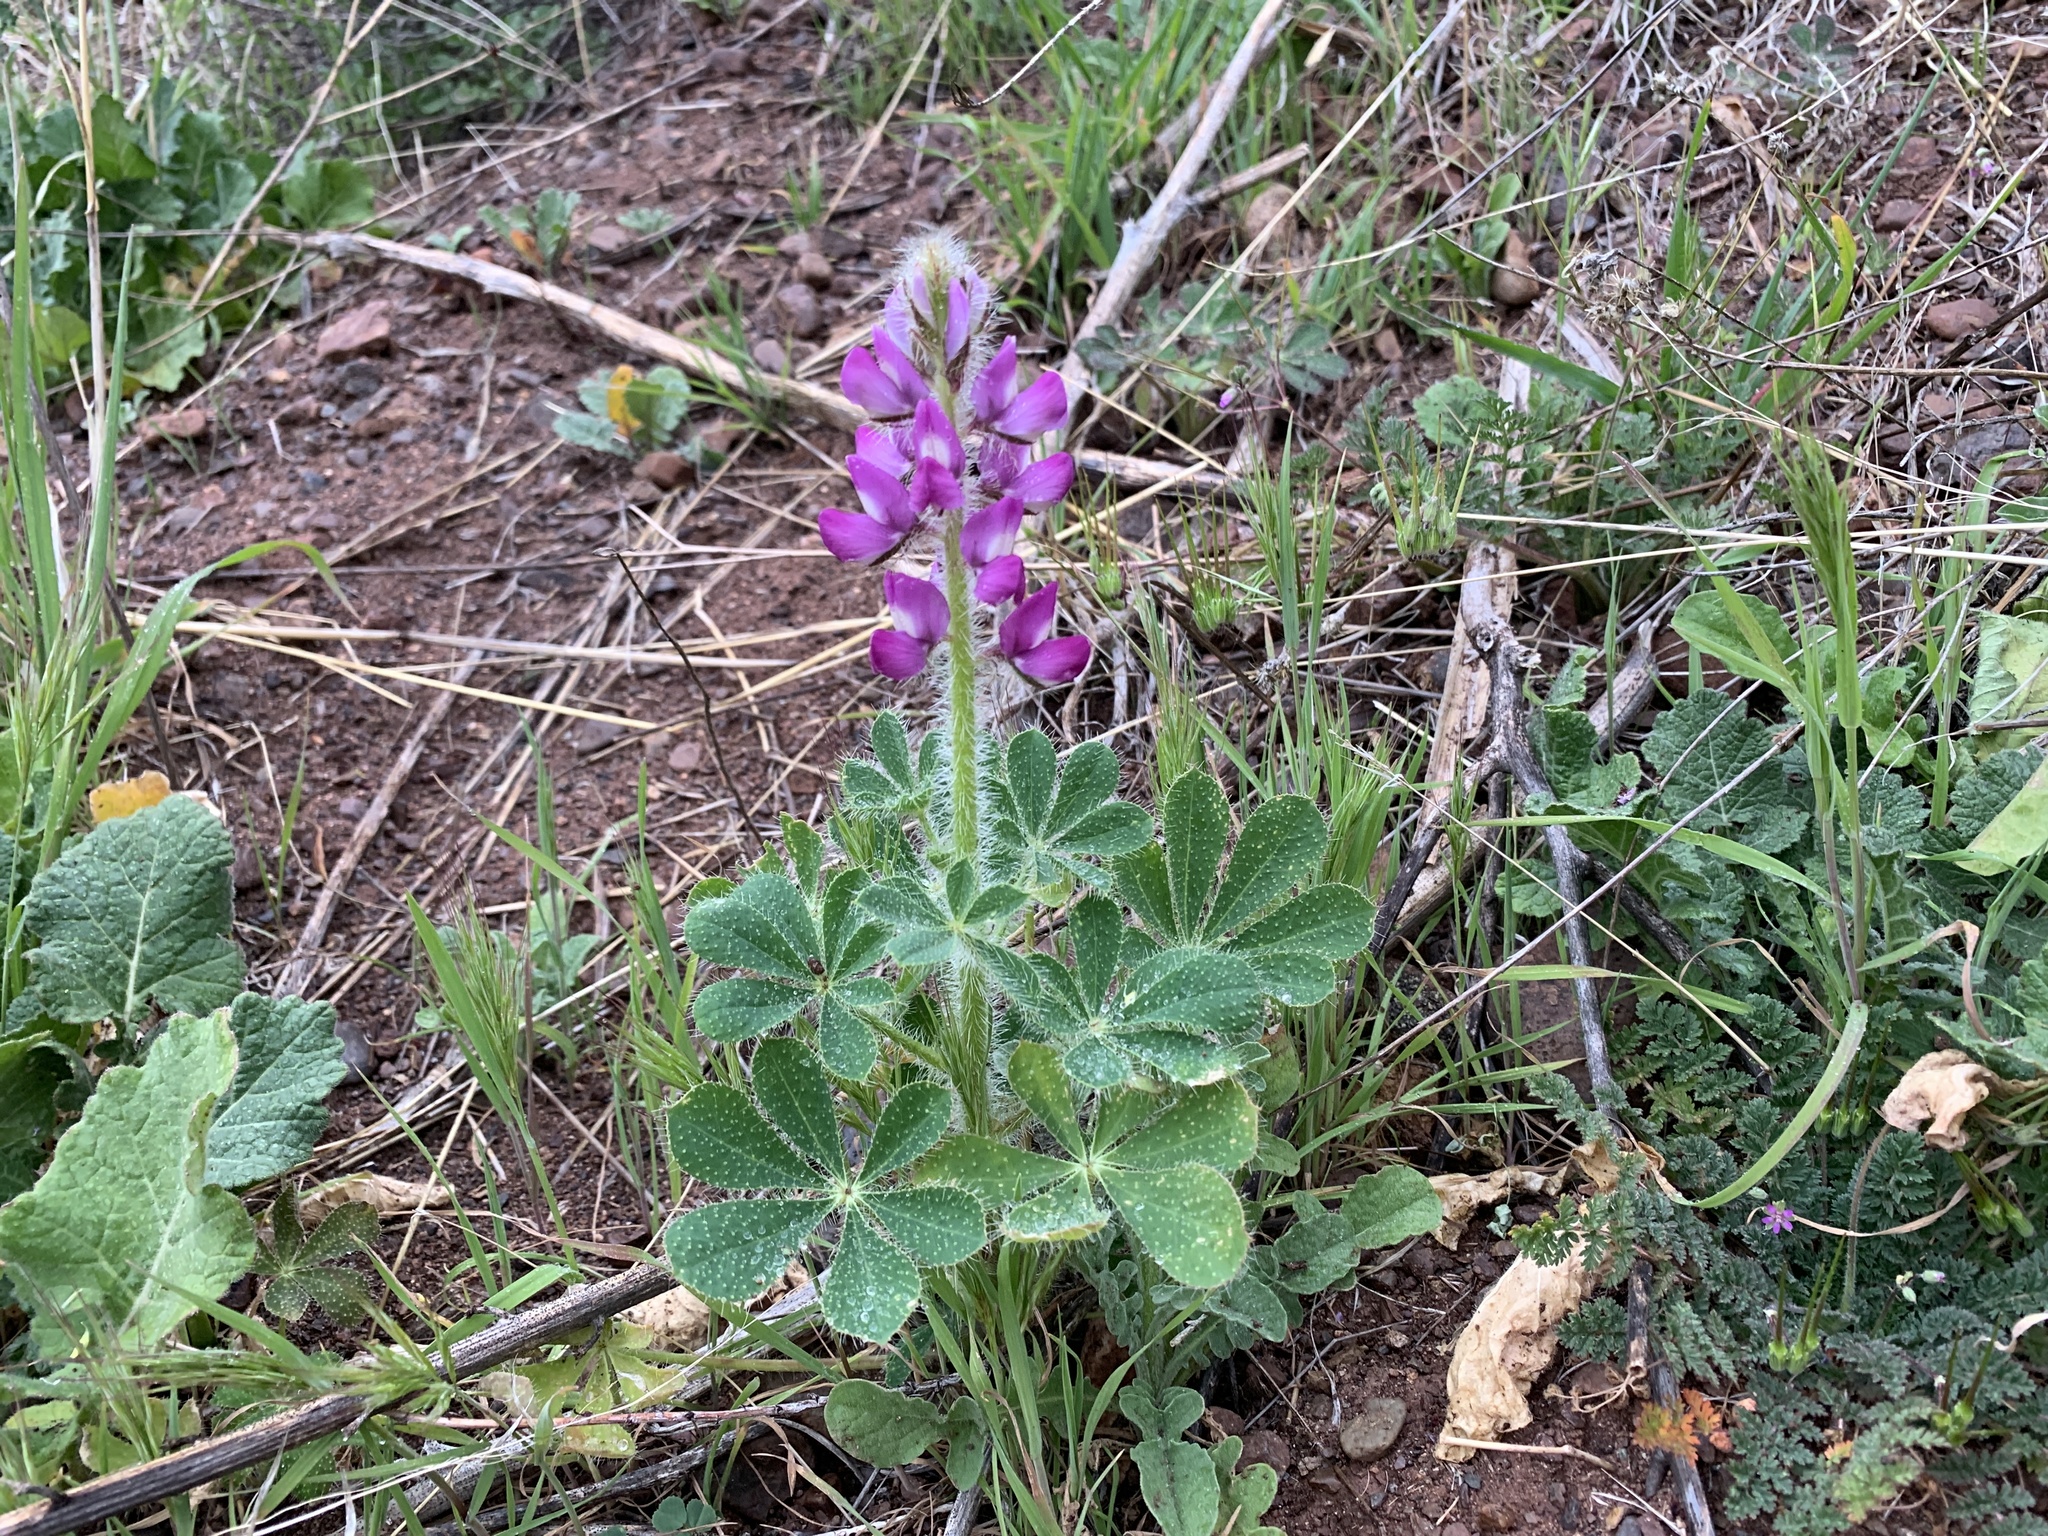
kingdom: Plantae
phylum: Tracheophyta
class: Magnoliopsida
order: Fabales
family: Fabaceae
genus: Lupinus
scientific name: Lupinus hirsutissimus
